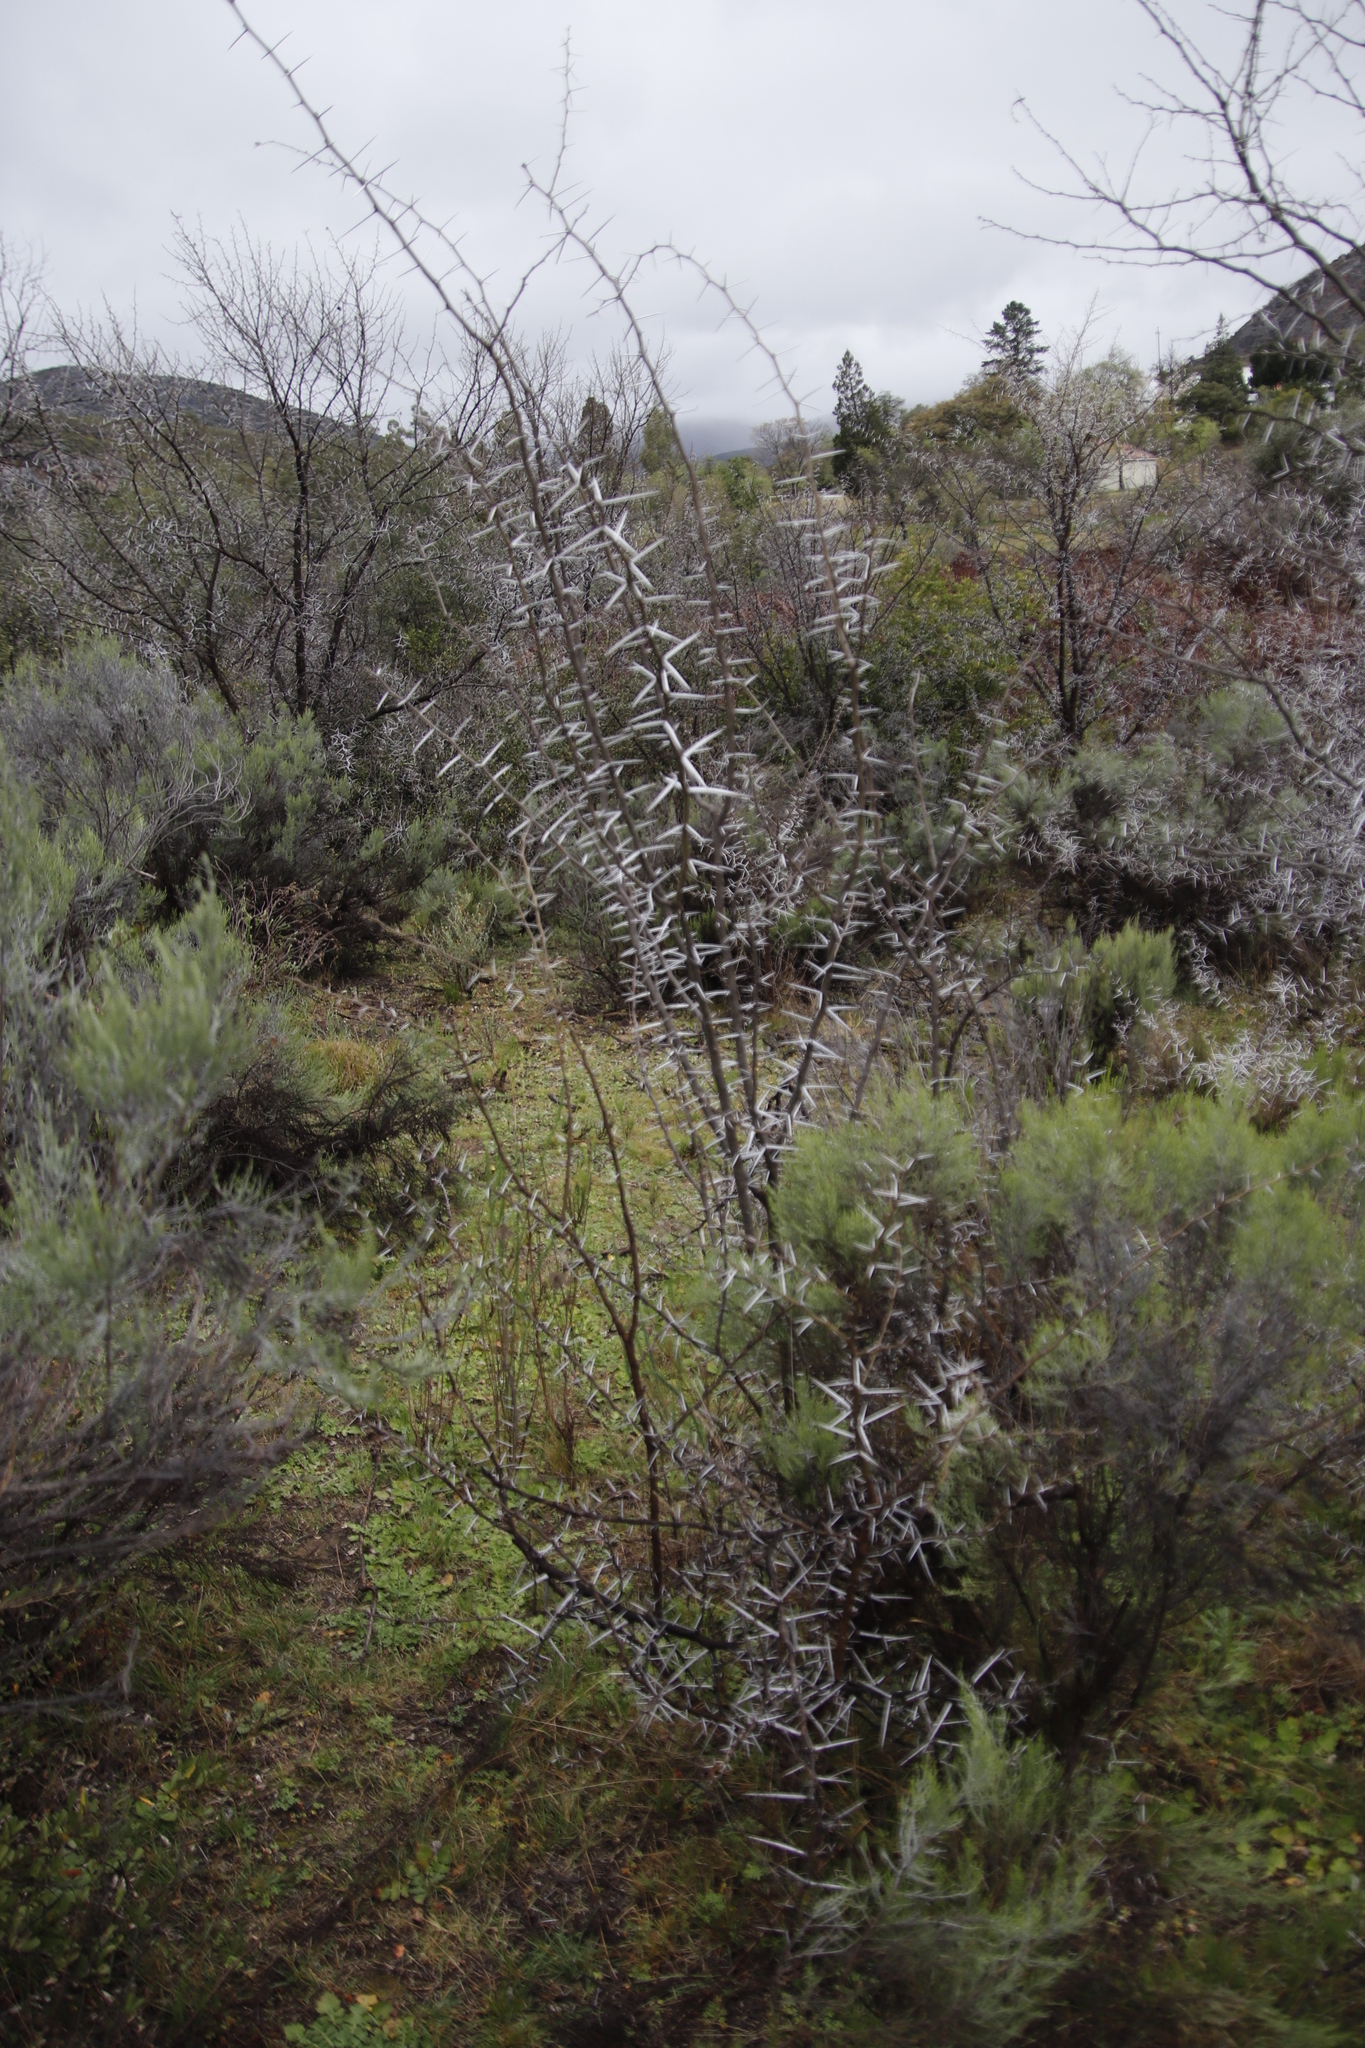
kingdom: Plantae
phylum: Tracheophyta
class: Magnoliopsida
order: Fabales
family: Fabaceae
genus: Vachellia
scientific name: Vachellia karroo
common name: Sweet thorn
